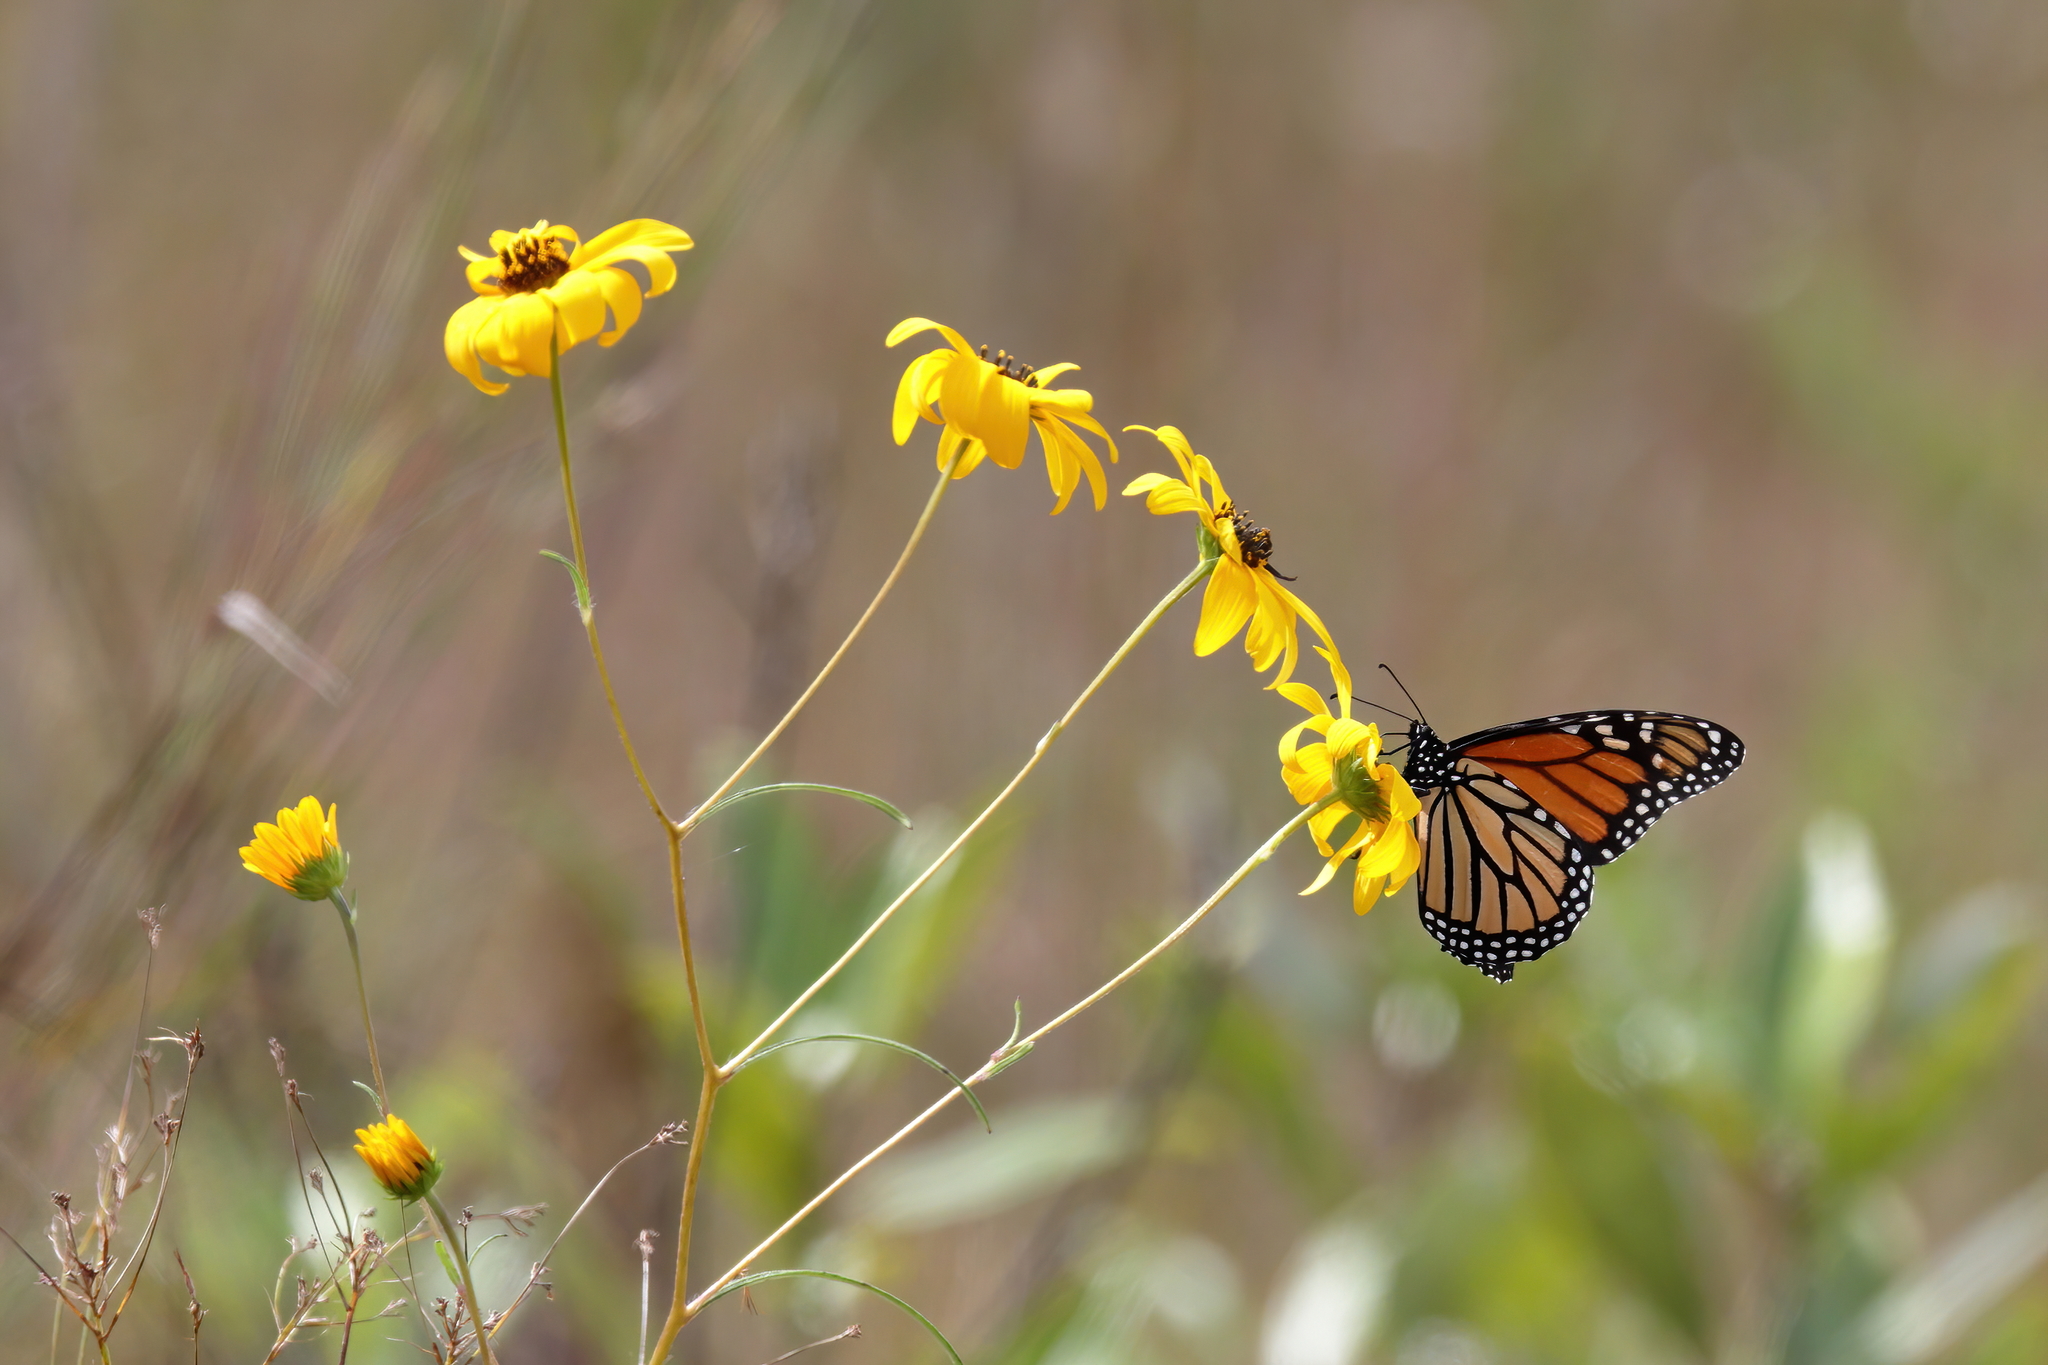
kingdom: Animalia
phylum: Arthropoda
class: Insecta
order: Lepidoptera
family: Nymphalidae
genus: Danaus
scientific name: Danaus plexippus
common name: Monarch
